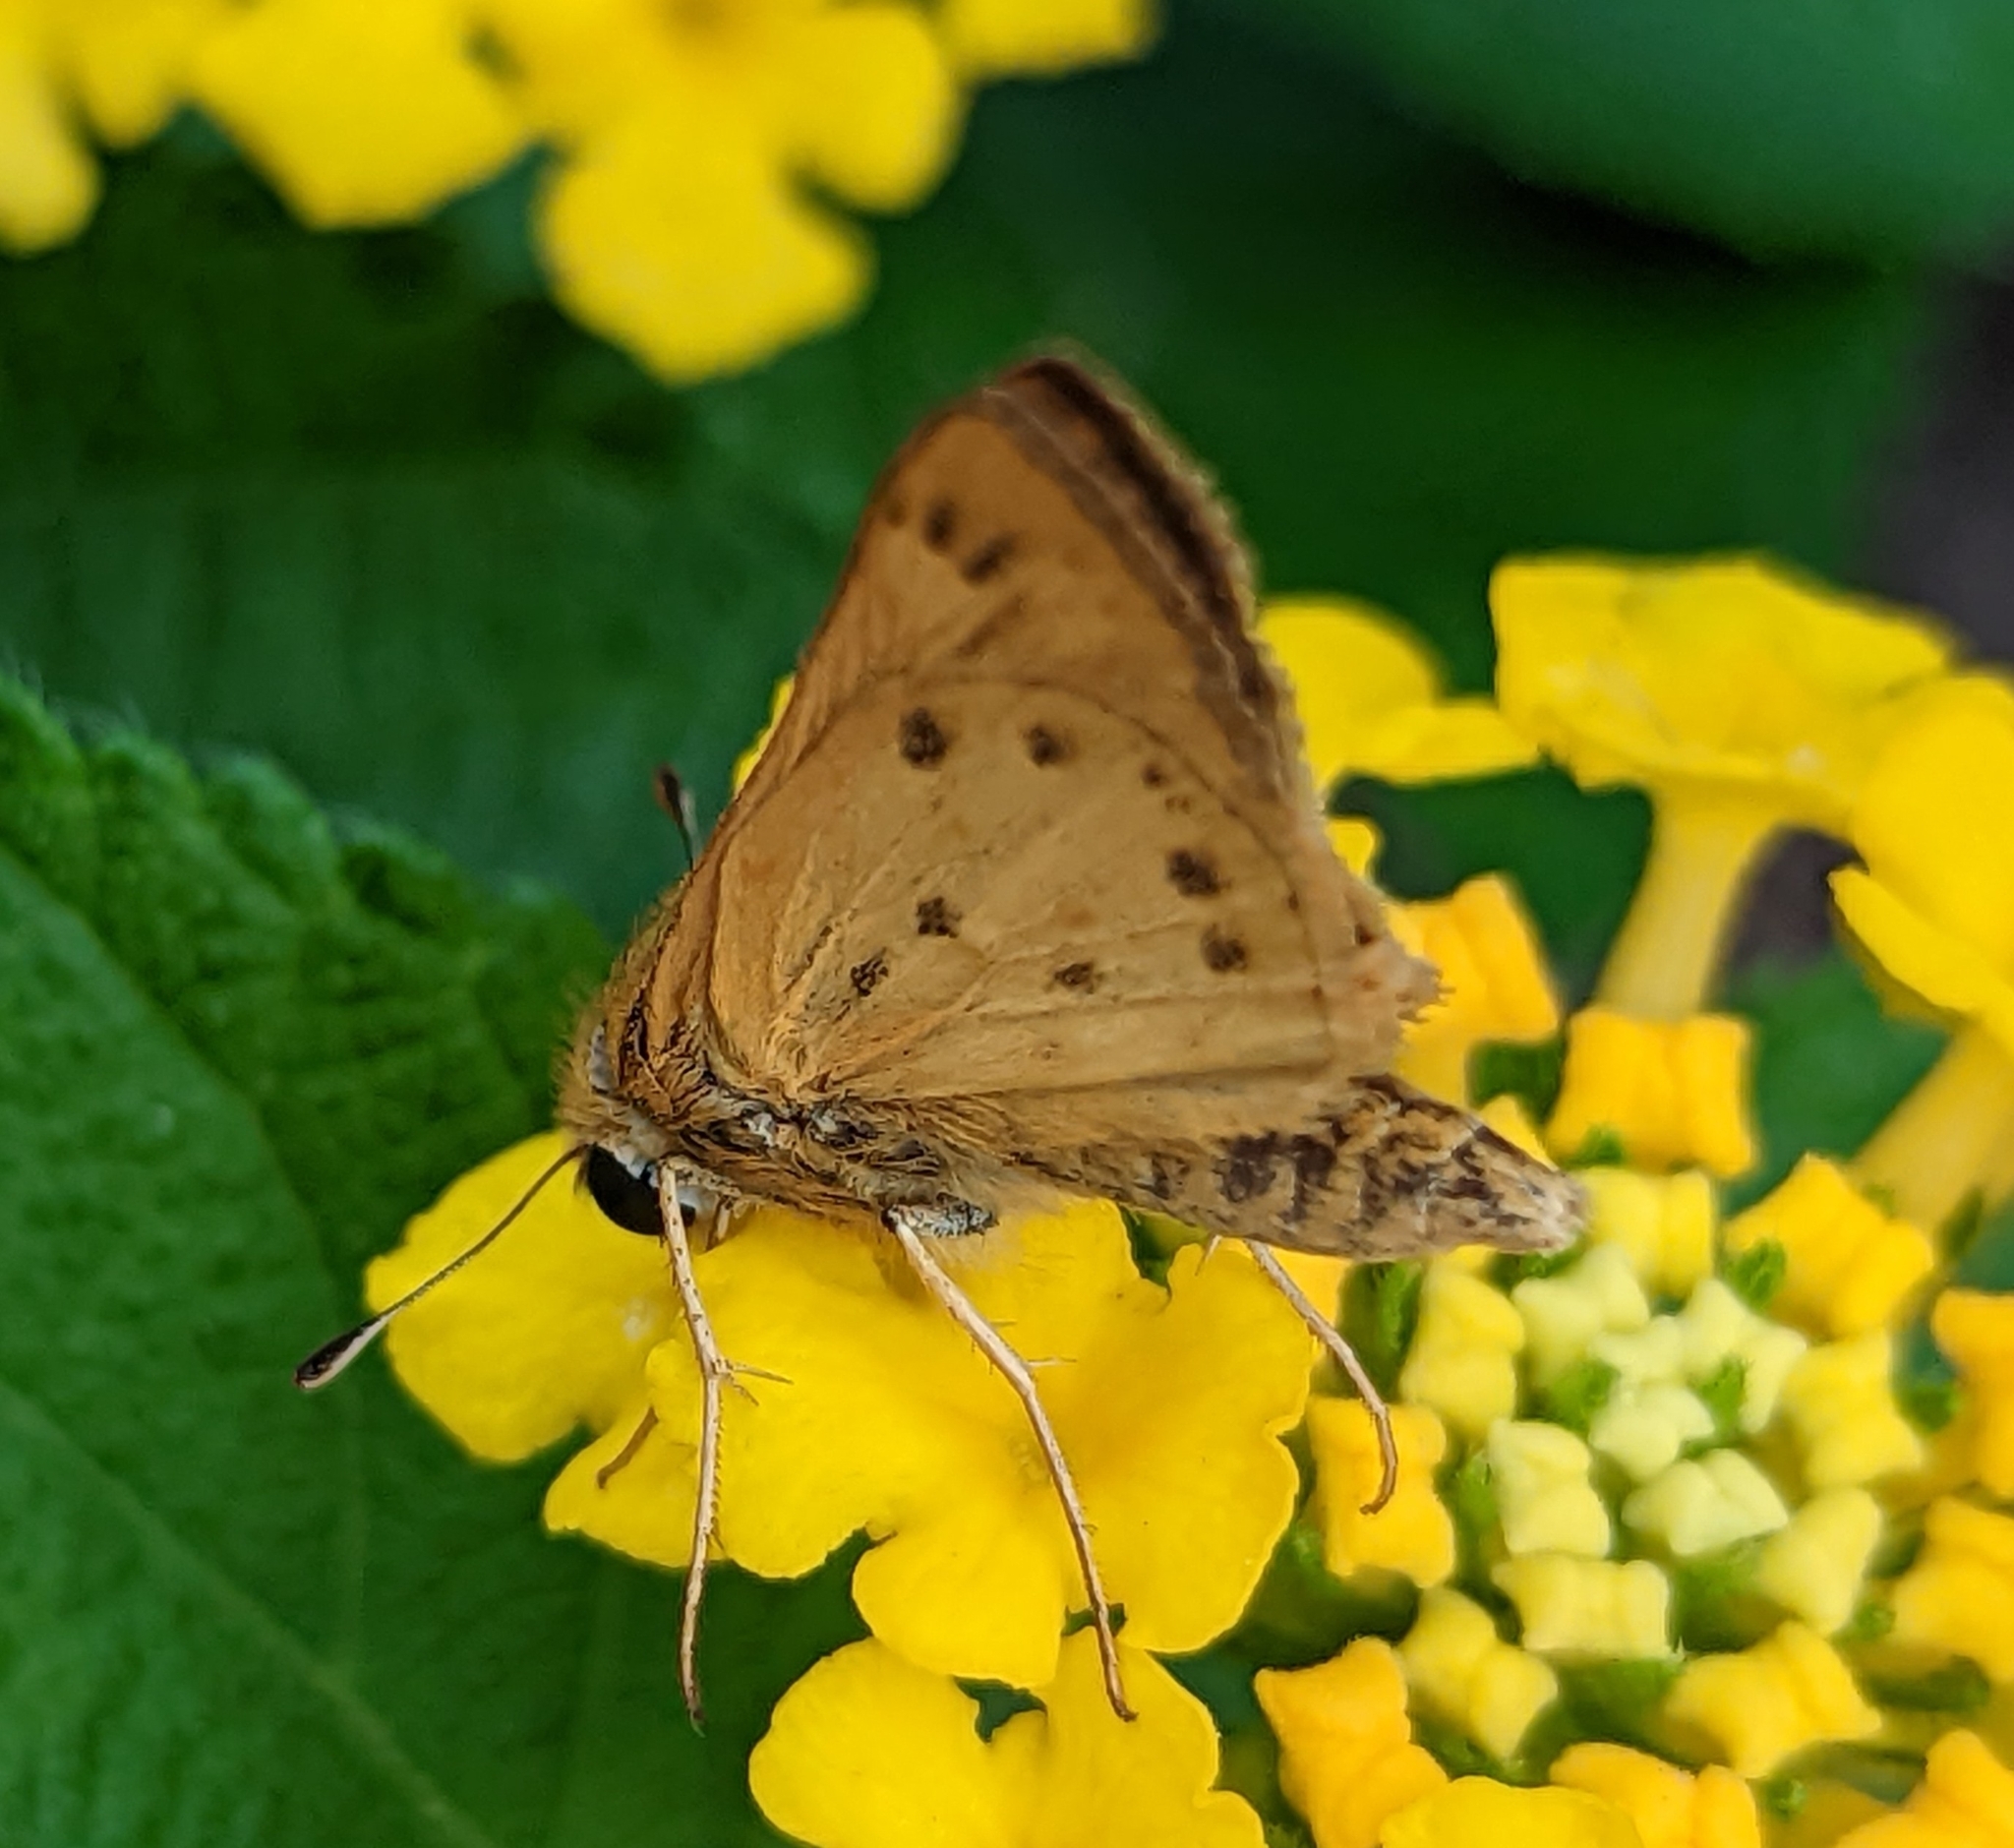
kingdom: Animalia
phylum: Arthropoda
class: Insecta
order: Lepidoptera
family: Hesperiidae
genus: Hylephila
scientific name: Hylephila phyleus
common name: Fiery skipper
